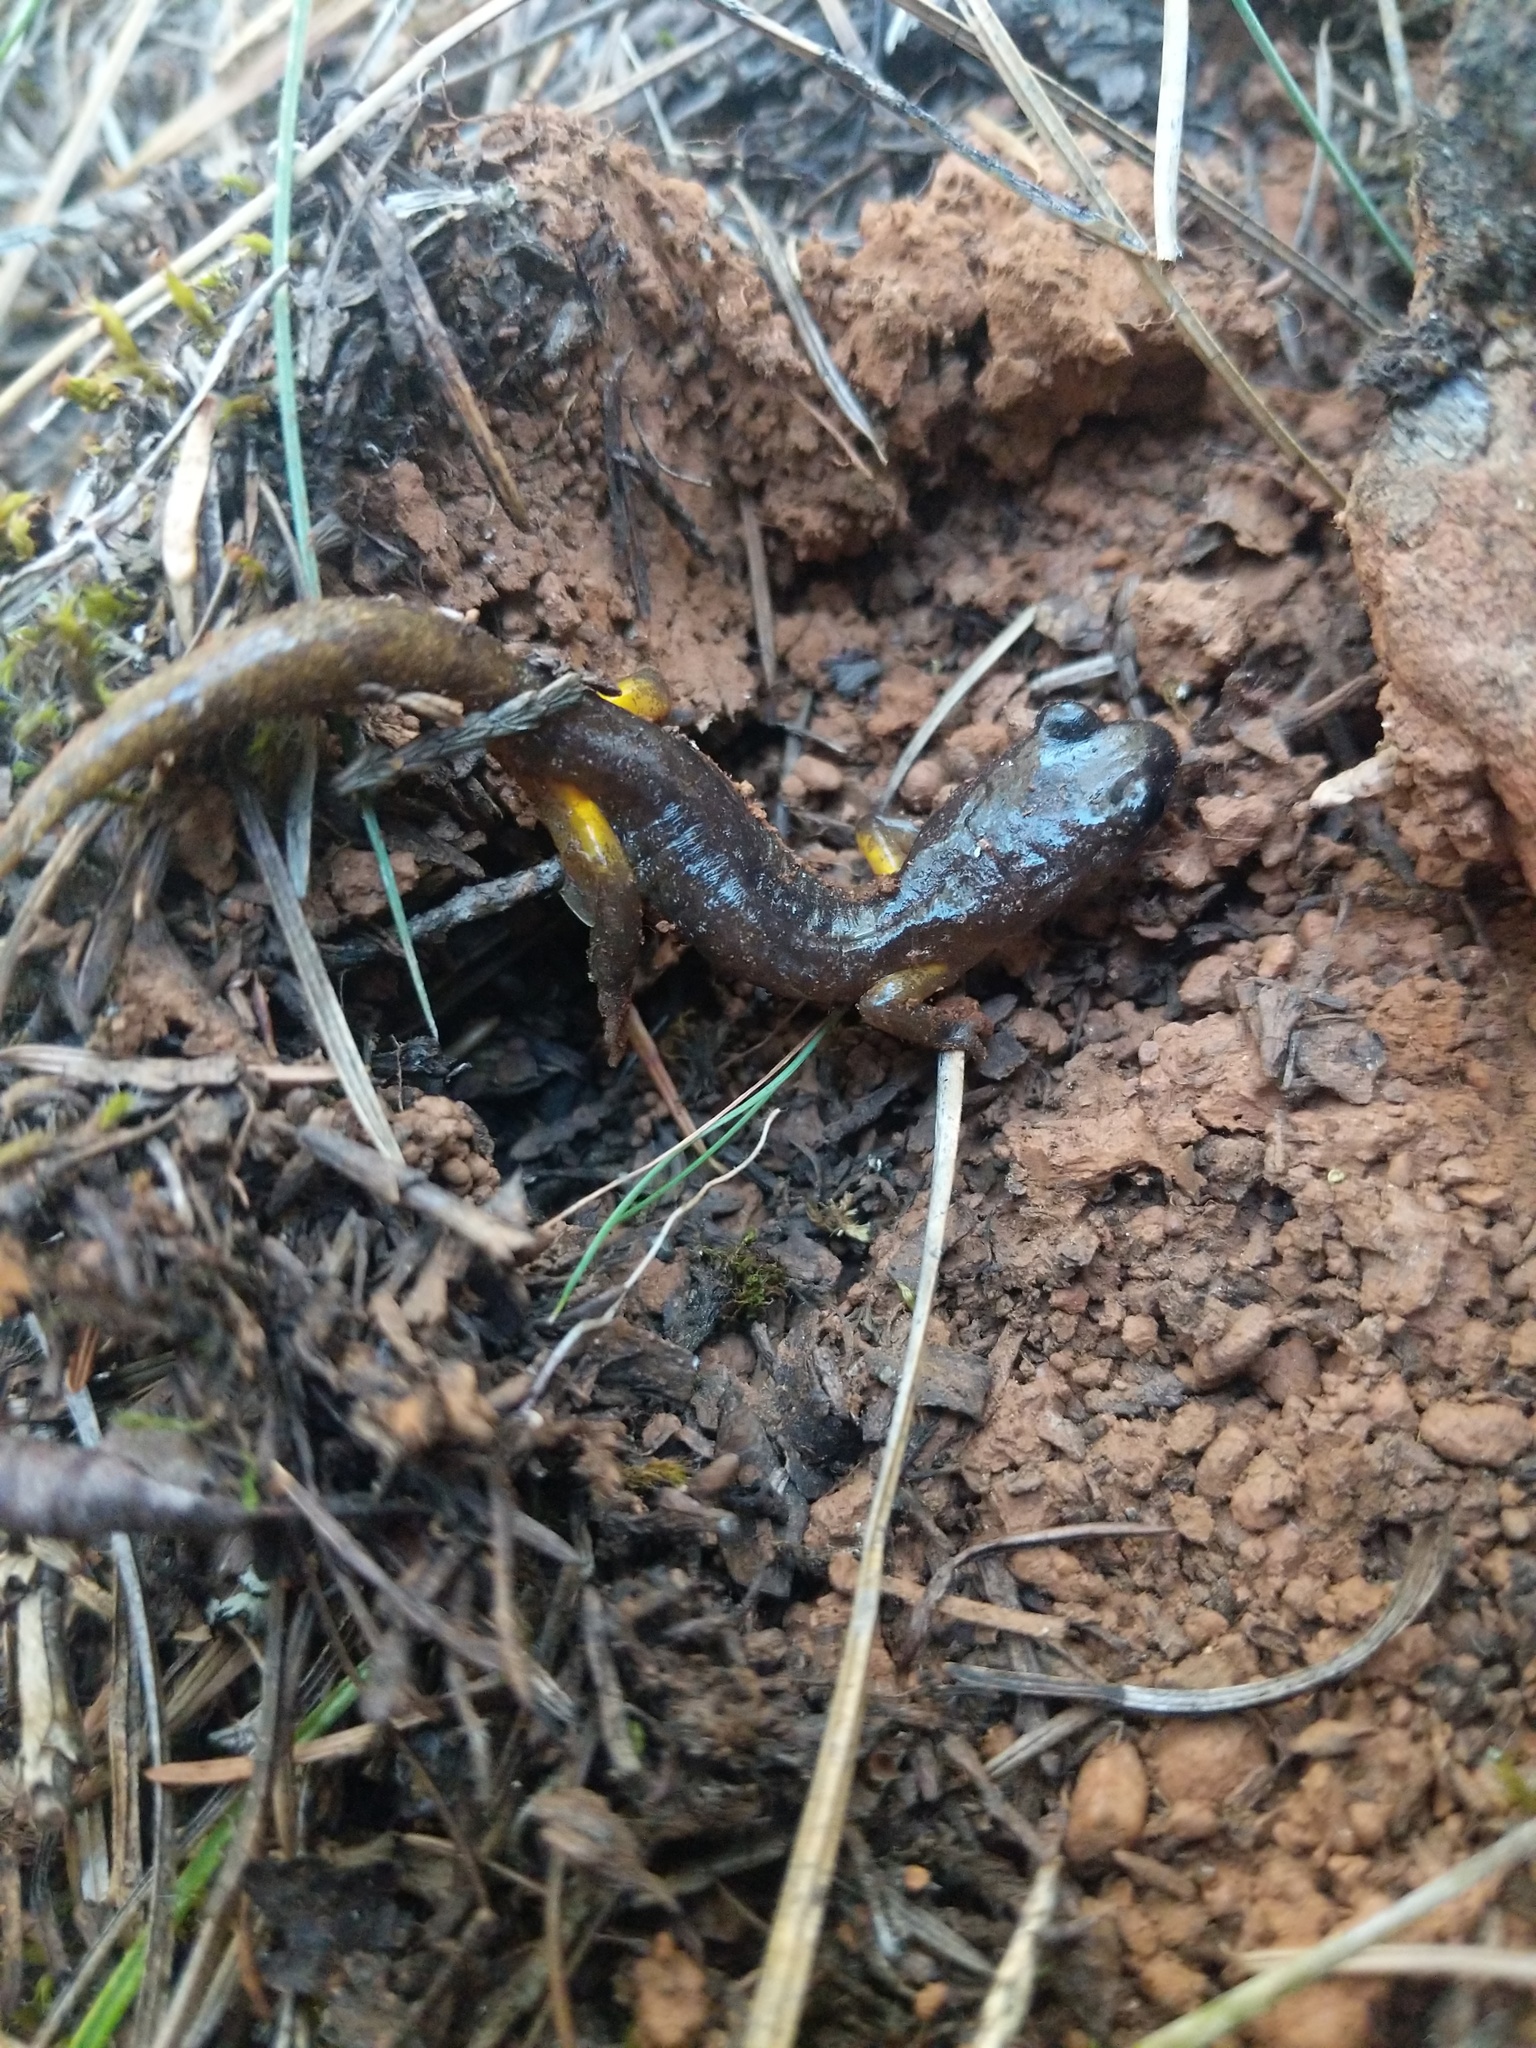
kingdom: Animalia
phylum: Chordata
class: Amphibia
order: Caudata
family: Plethodontidae
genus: Ensatina
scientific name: Ensatina eschscholtzii
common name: Ensatina
